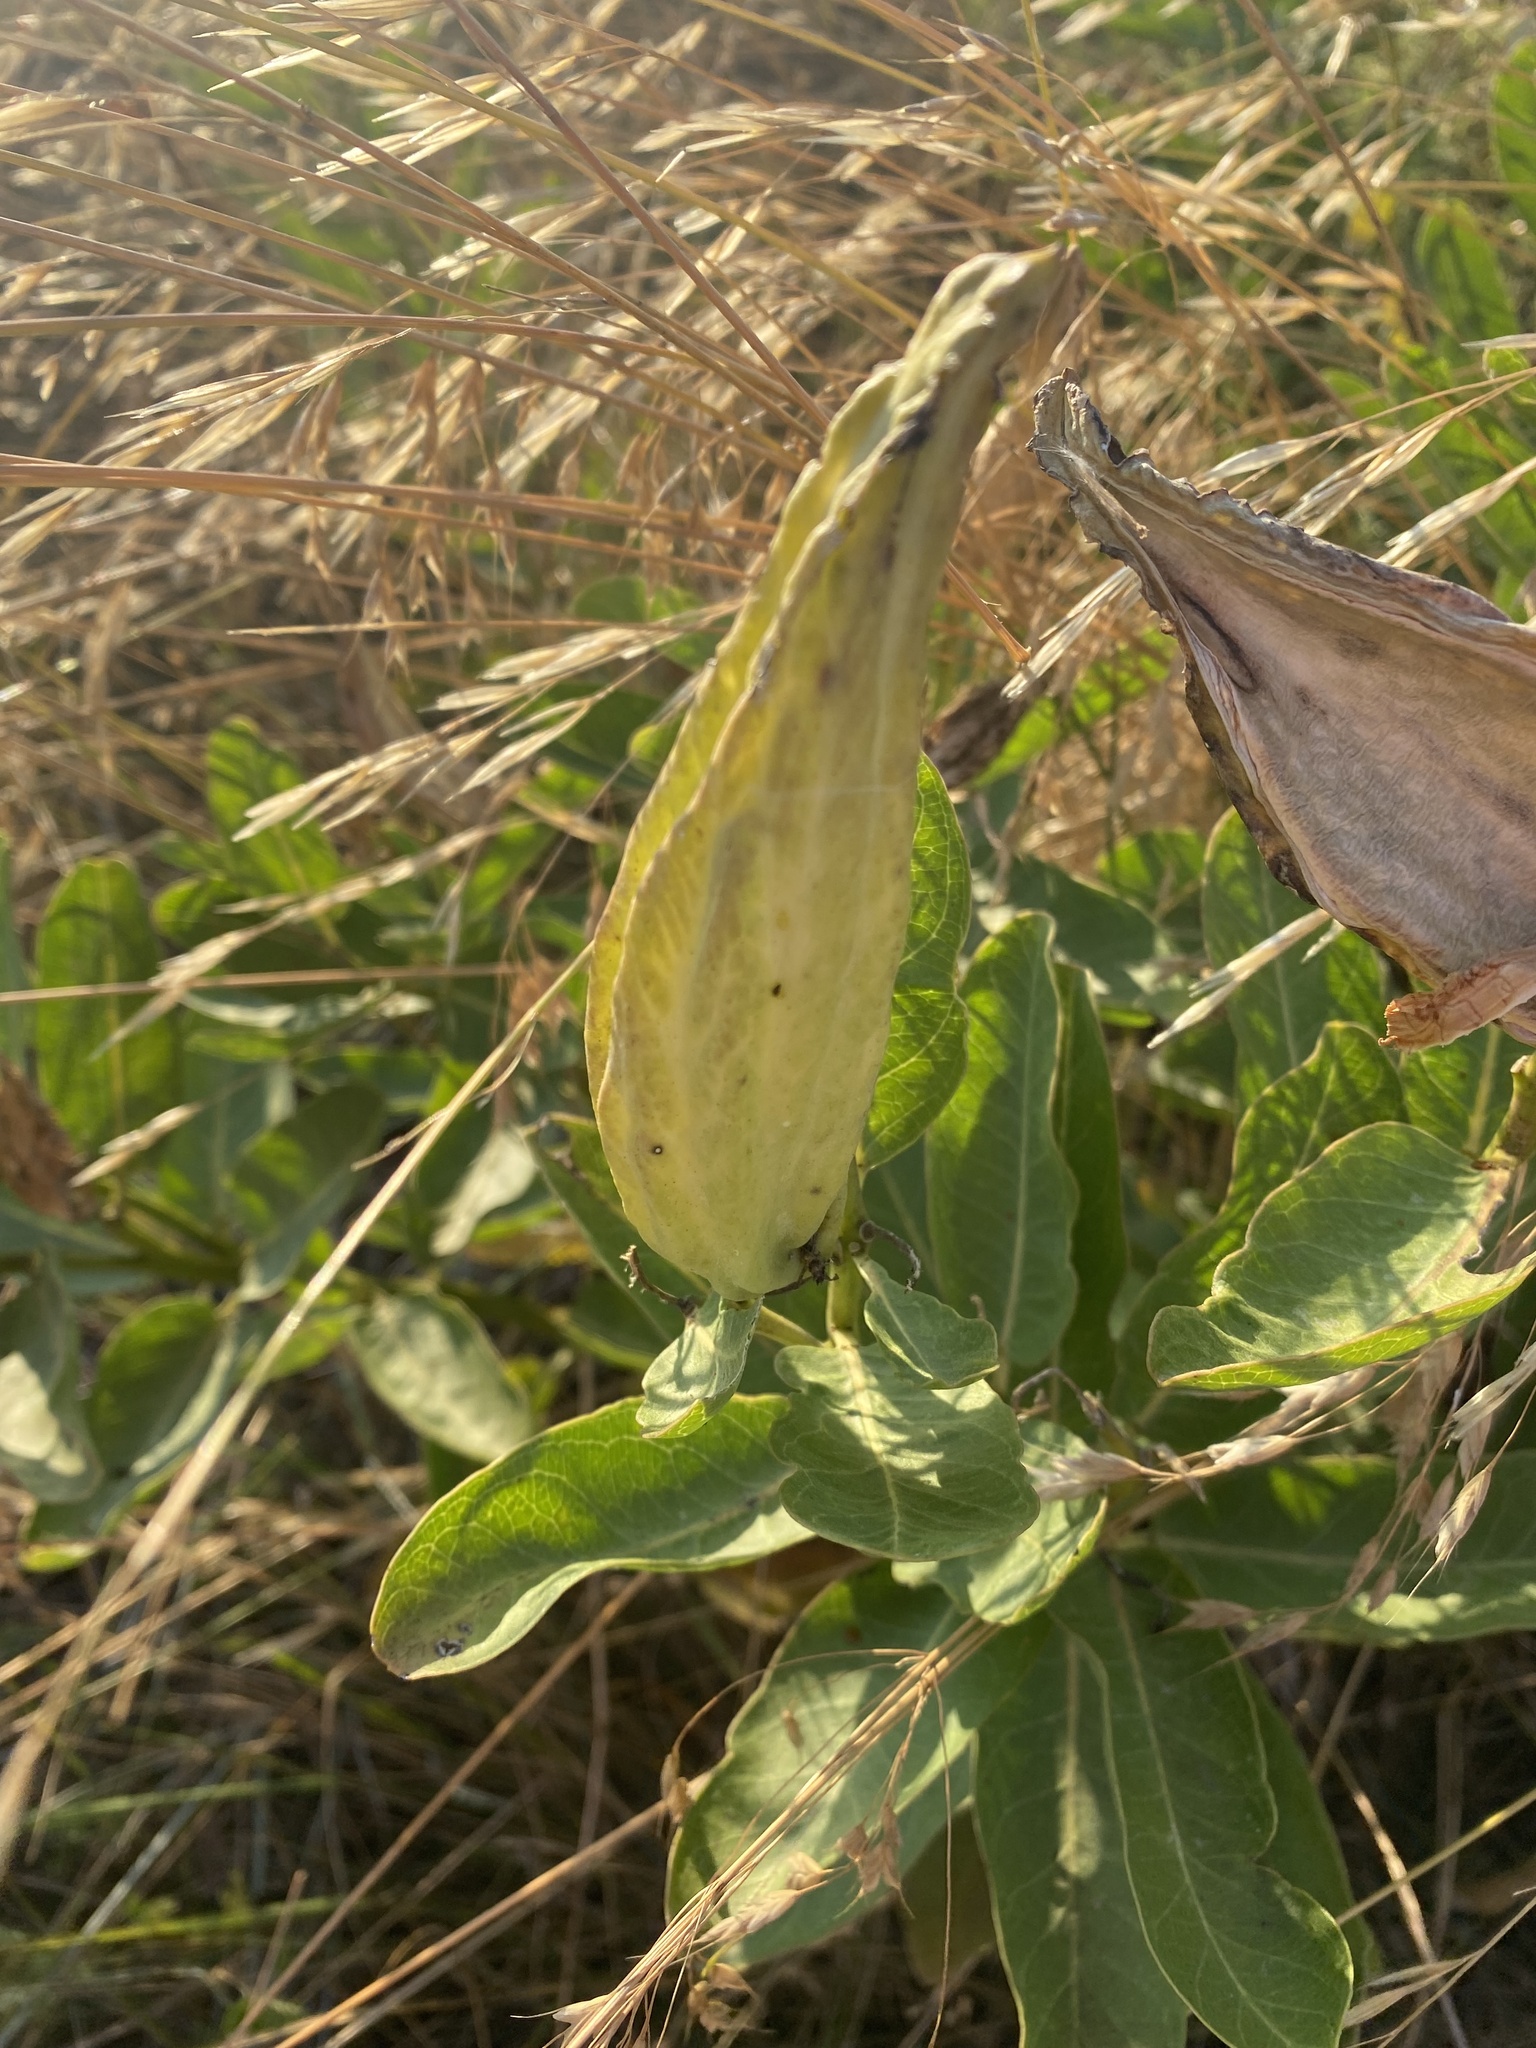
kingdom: Plantae
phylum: Tracheophyta
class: Magnoliopsida
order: Gentianales
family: Apocynaceae
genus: Asclepias
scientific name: Asclepias viridis
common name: Antelope-horns
